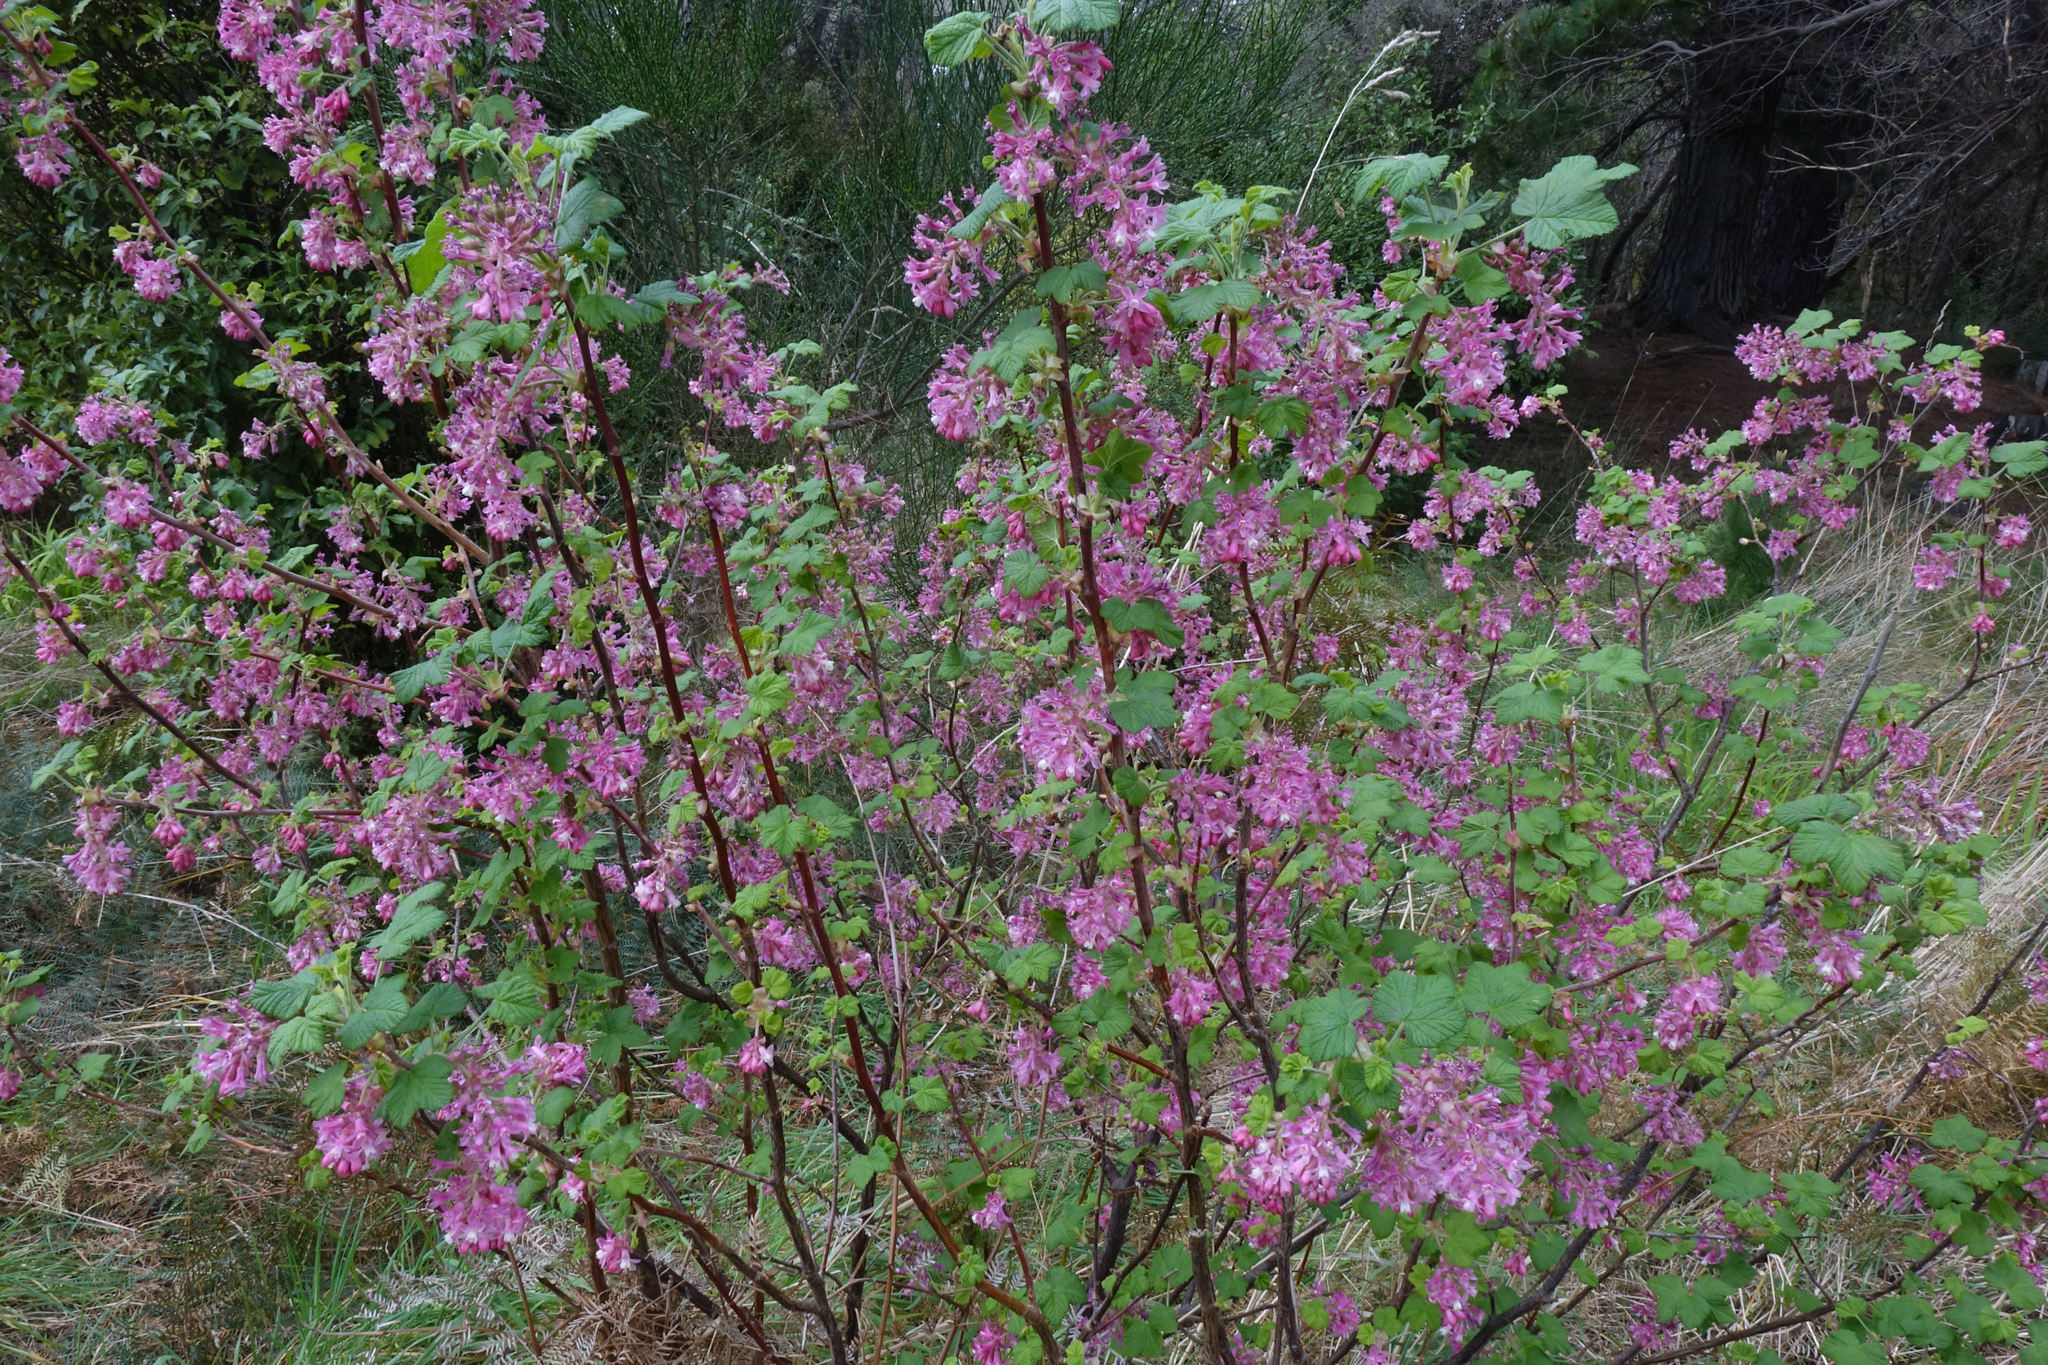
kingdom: Plantae
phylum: Tracheophyta
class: Magnoliopsida
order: Saxifragales
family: Grossulariaceae
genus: Ribes
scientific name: Ribes sanguineum
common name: Flowering currant
